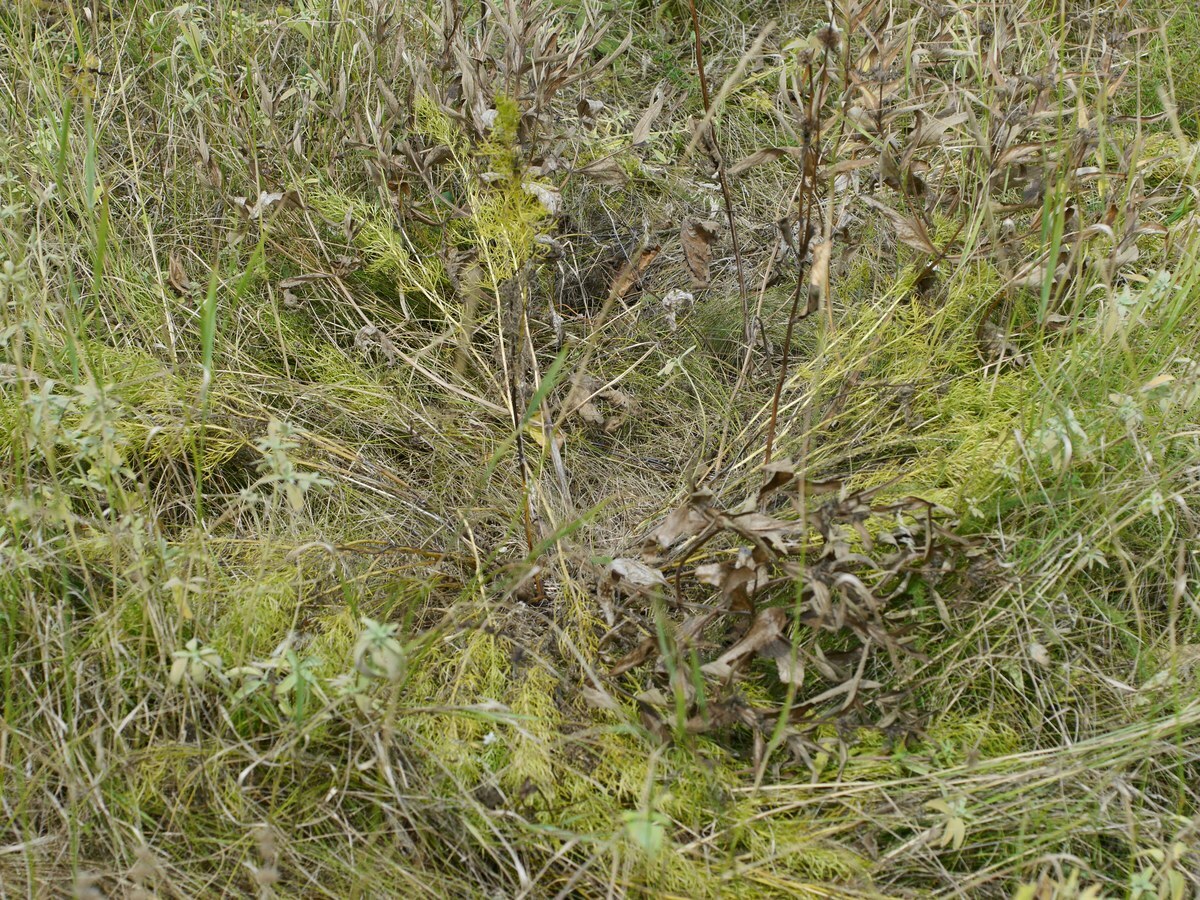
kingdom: Plantae
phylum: Tracheophyta
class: Magnoliopsida
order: Ranunculales
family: Ranunculaceae
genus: Adonis
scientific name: Adonis vernalis
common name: Yellow pheasants-eye
